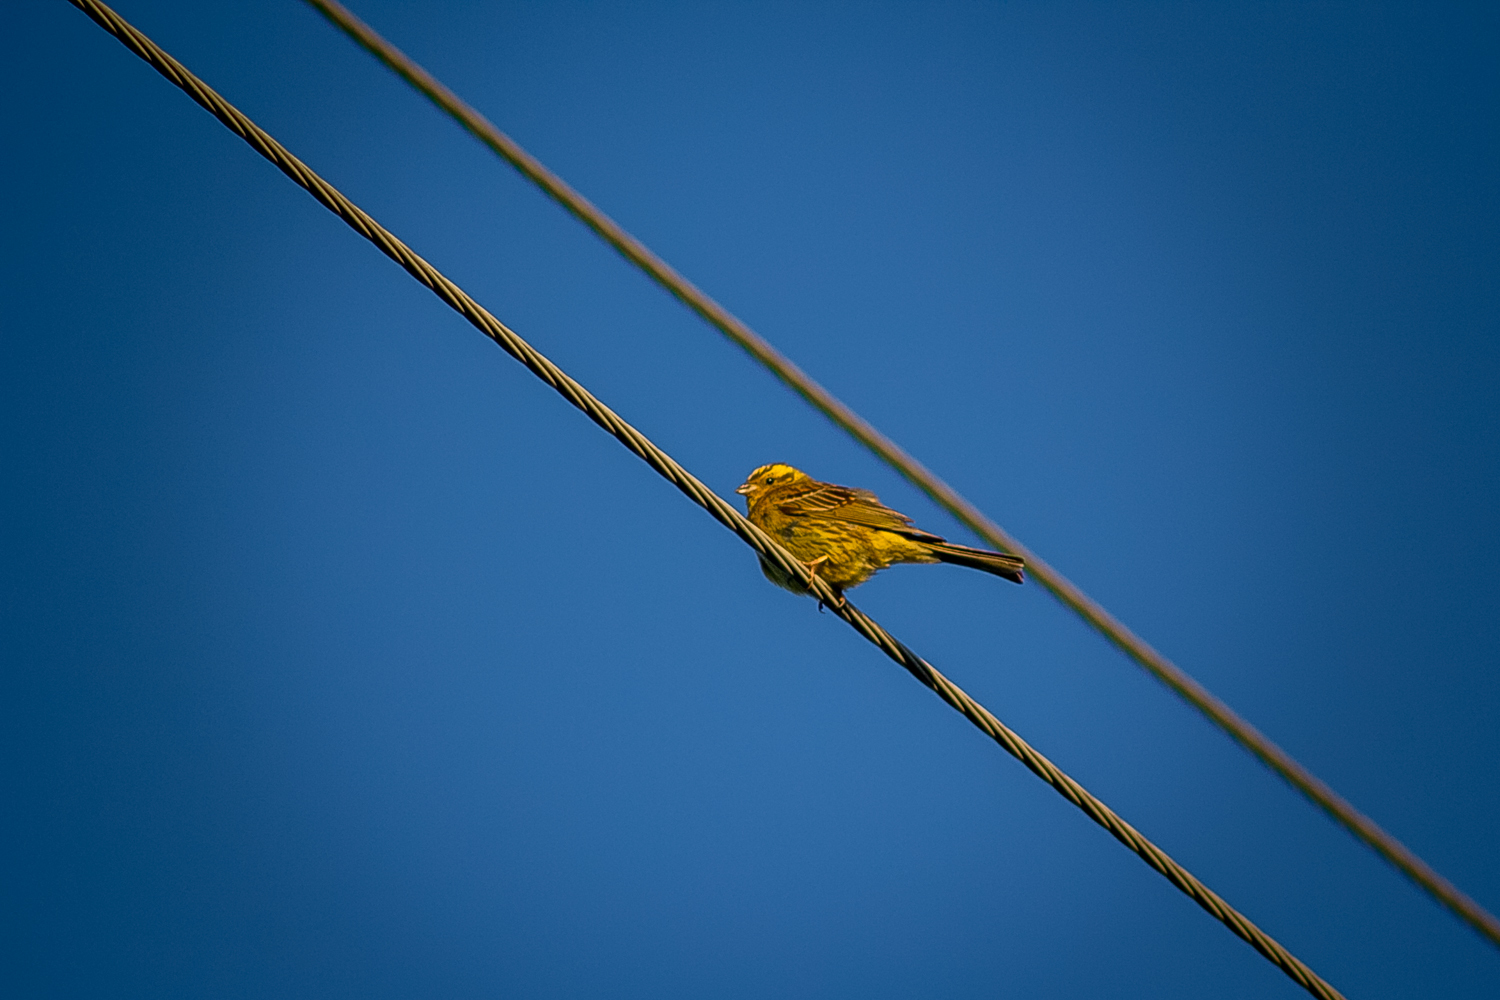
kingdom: Animalia
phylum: Chordata
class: Aves
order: Passeriformes
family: Emberizidae
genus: Emberiza
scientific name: Emberiza citrinella
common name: Yellowhammer
